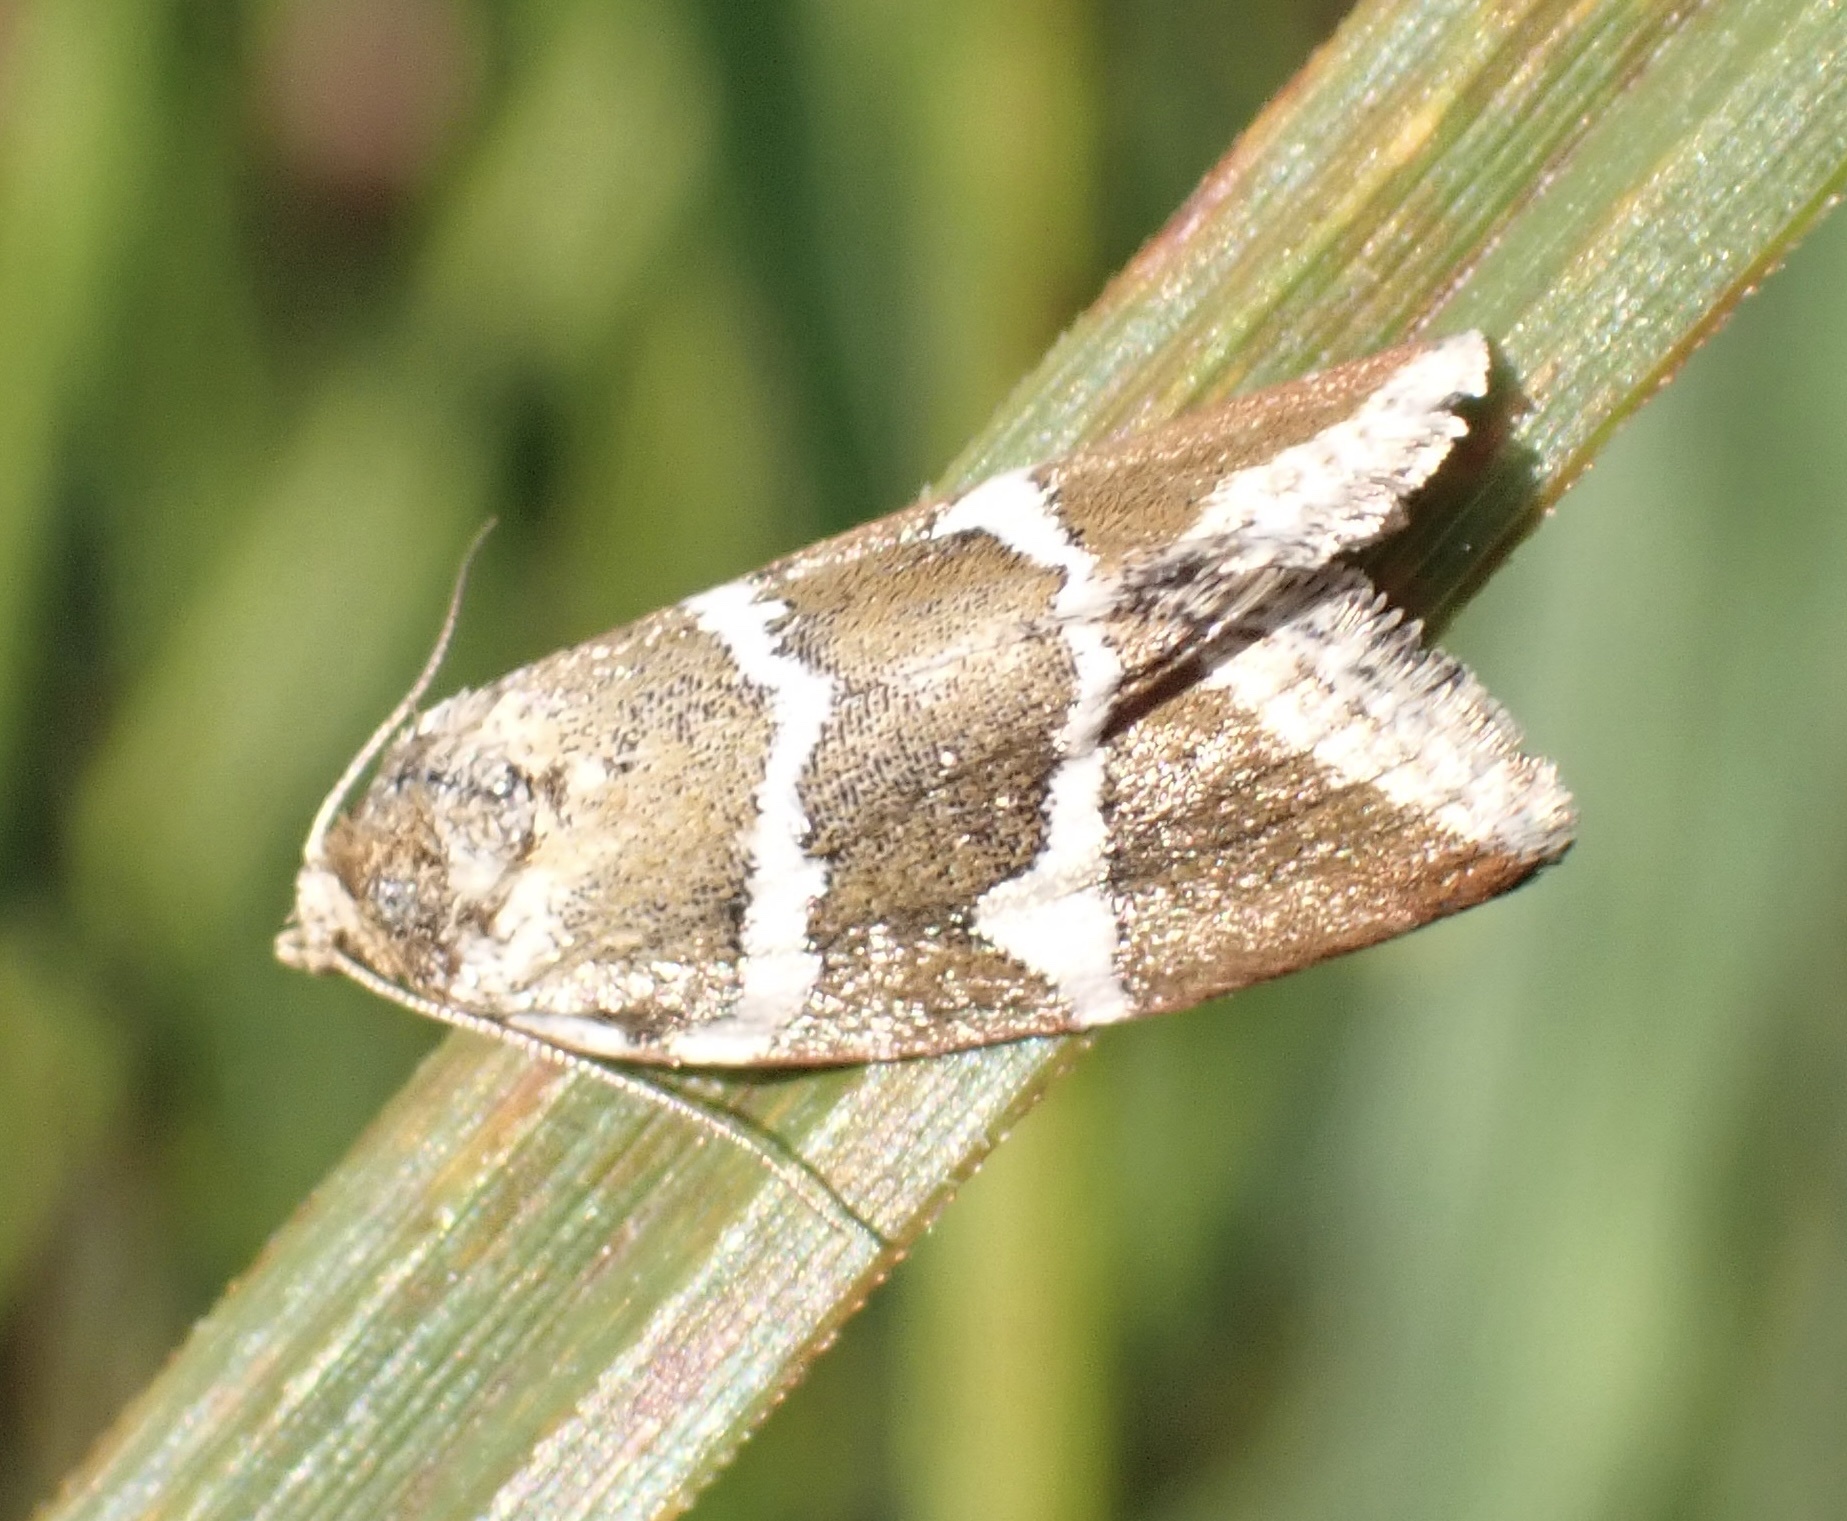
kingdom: Animalia
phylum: Arthropoda
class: Insecta
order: Lepidoptera
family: Noctuidae
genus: Deltote
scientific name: Deltote bankiana
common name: Silver barred
